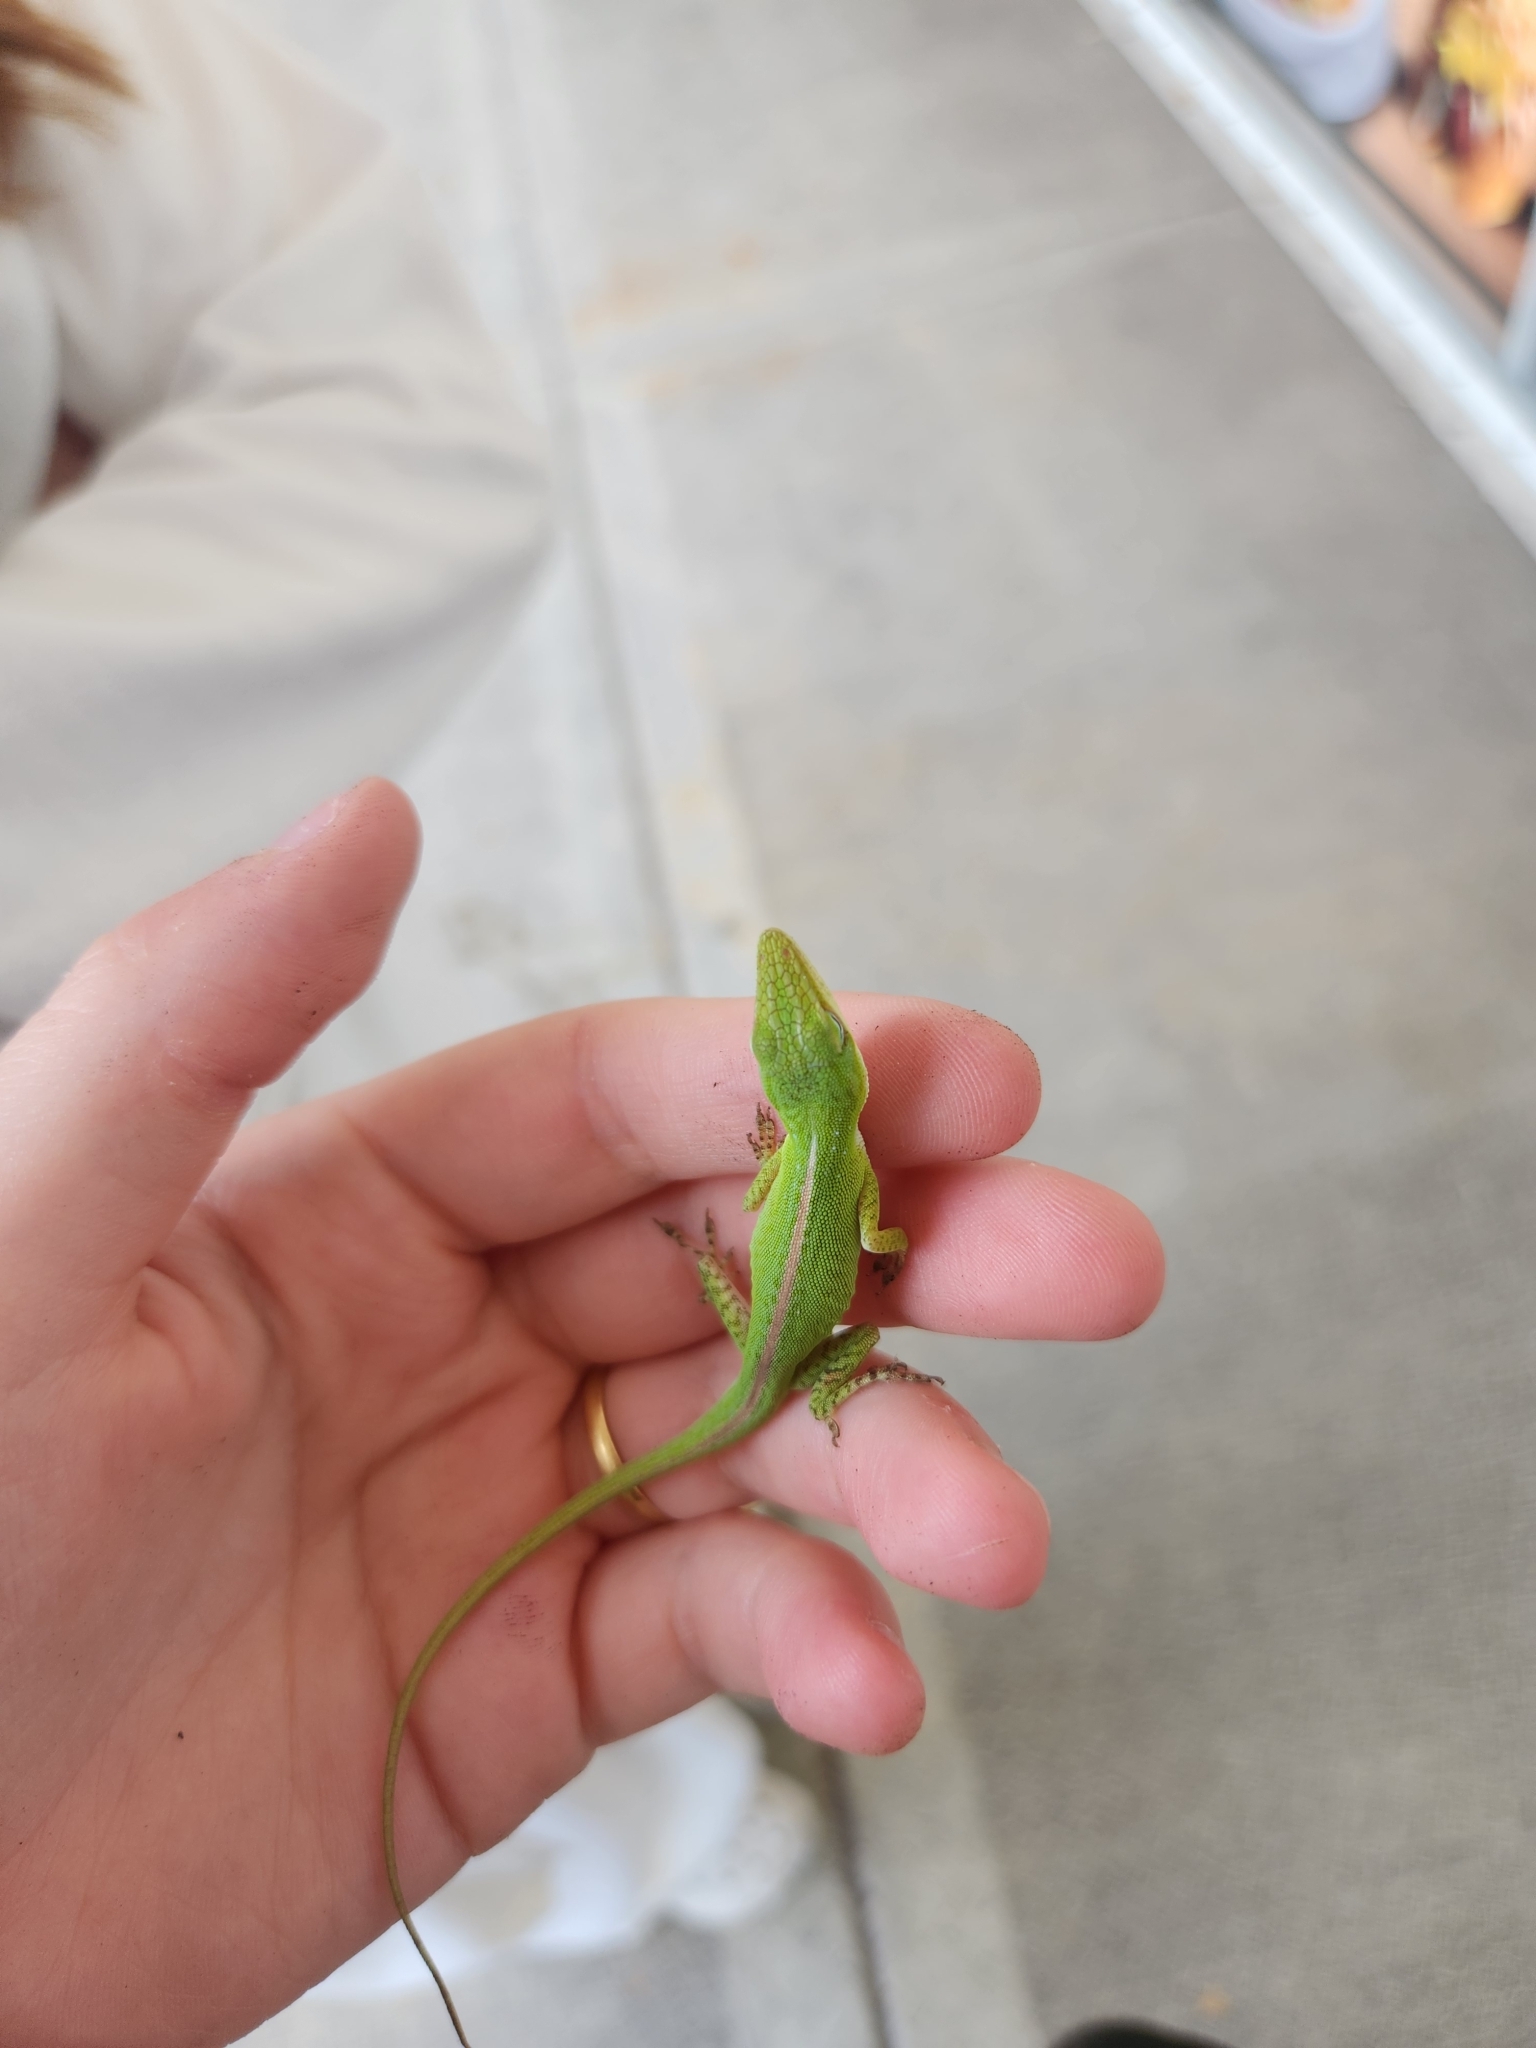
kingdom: Animalia
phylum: Chordata
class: Squamata
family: Dactyloidae
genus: Anolis
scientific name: Anolis carolinensis
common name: Green anole
